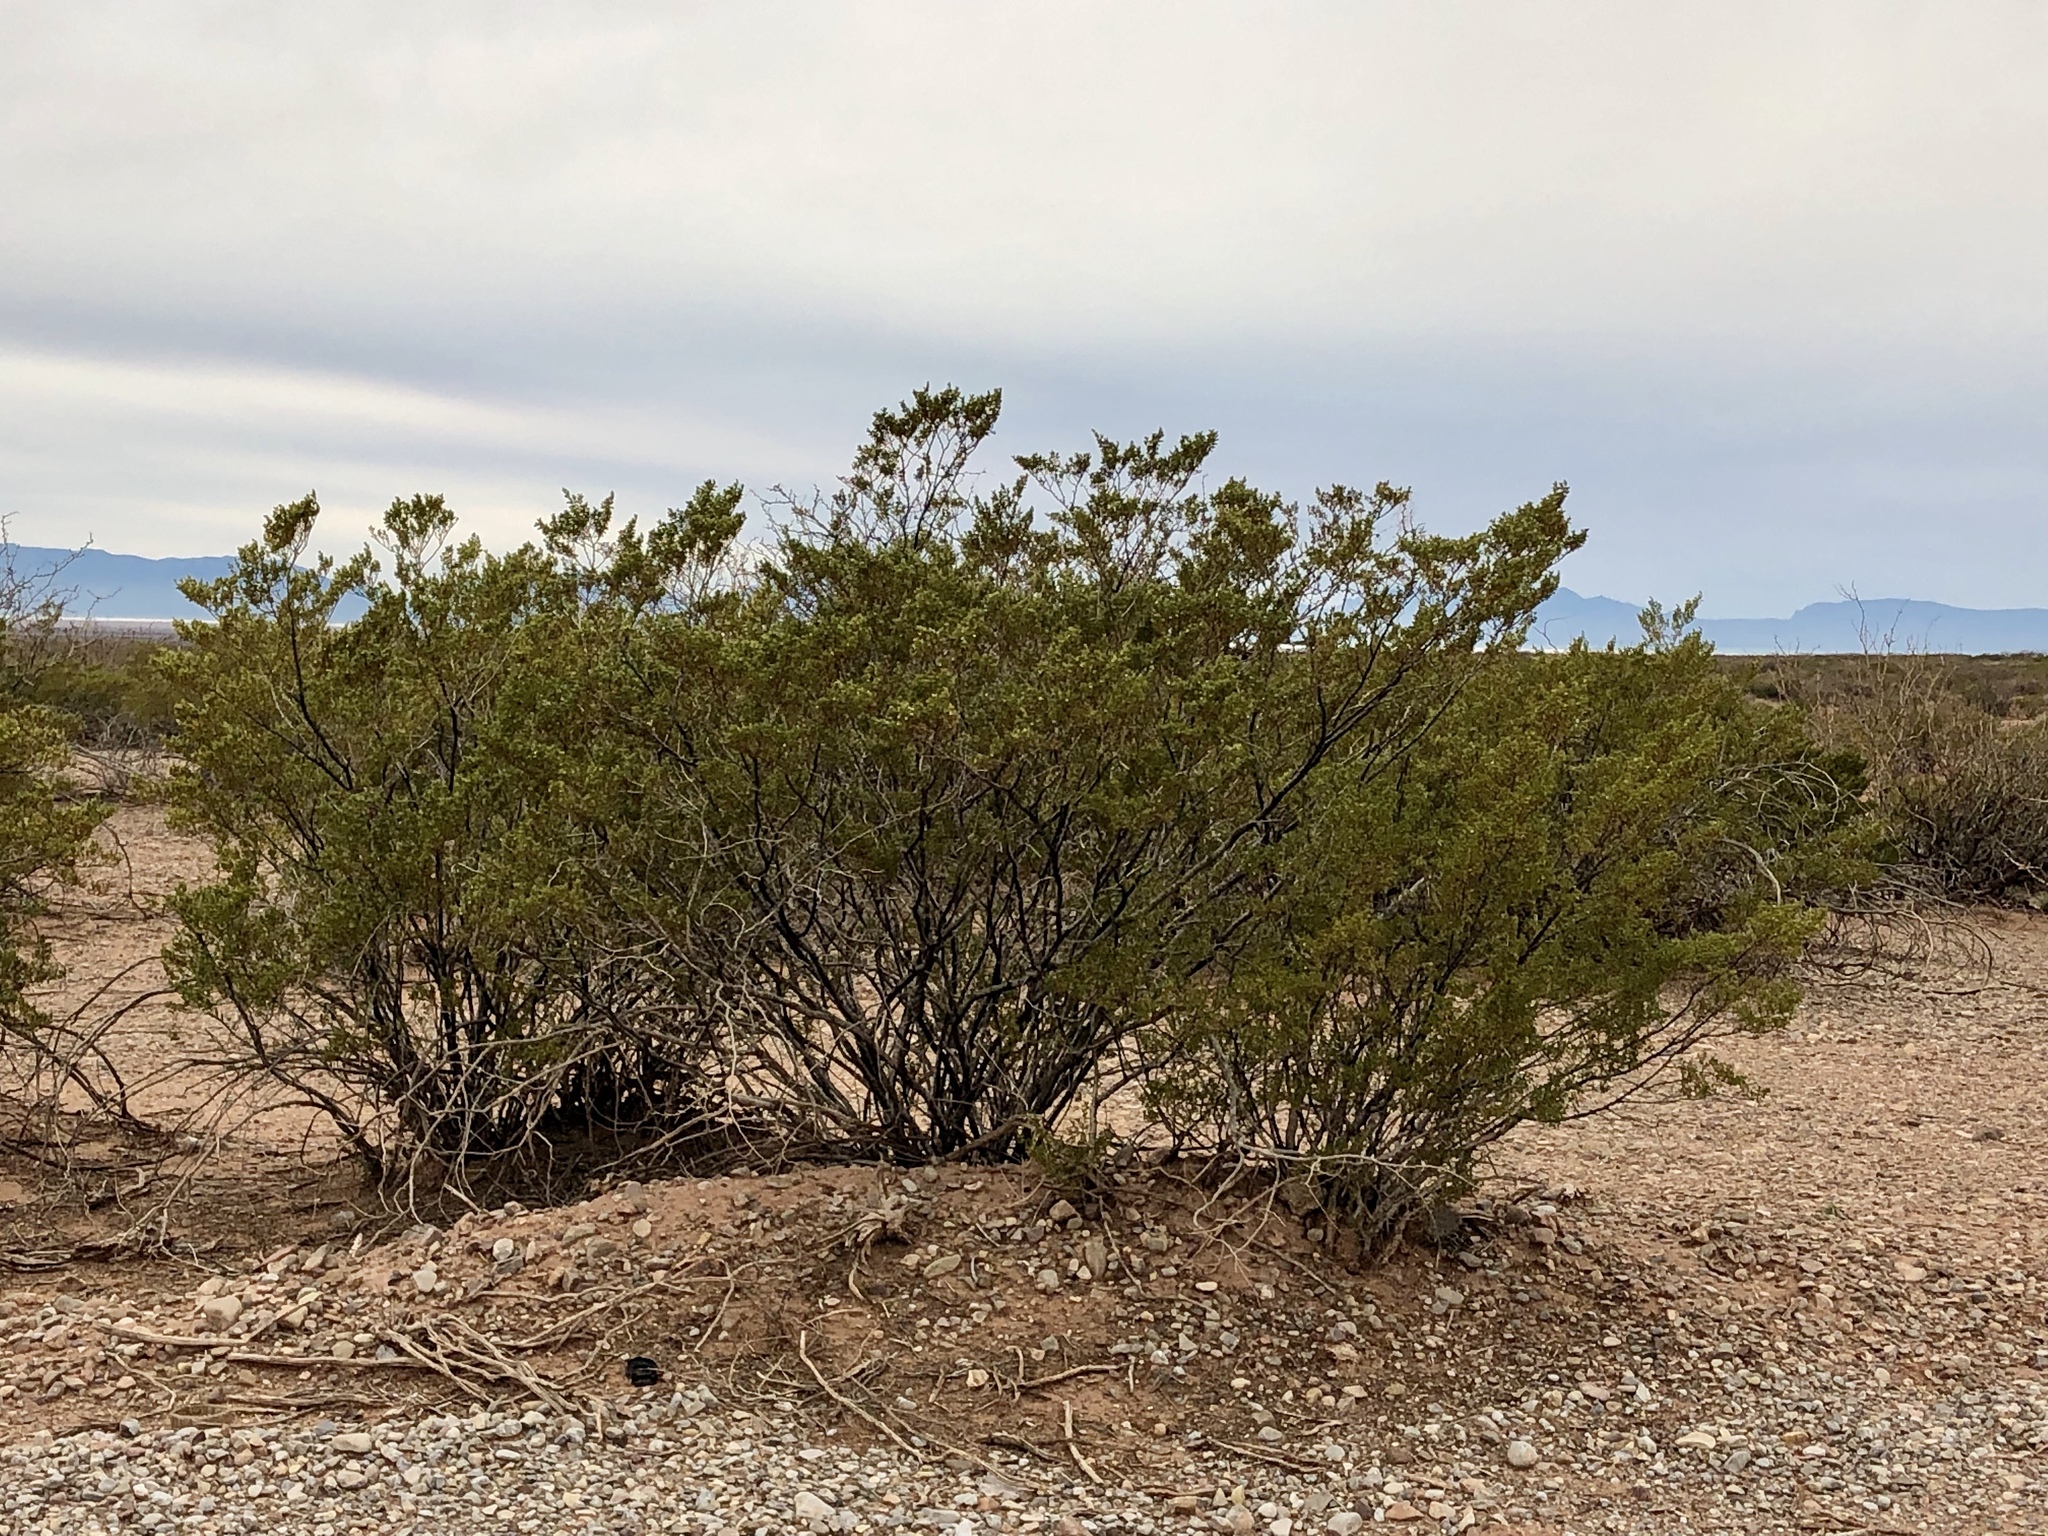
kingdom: Plantae
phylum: Tracheophyta
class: Magnoliopsida
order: Zygophyllales
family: Zygophyllaceae
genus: Larrea
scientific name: Larrea tridentata
